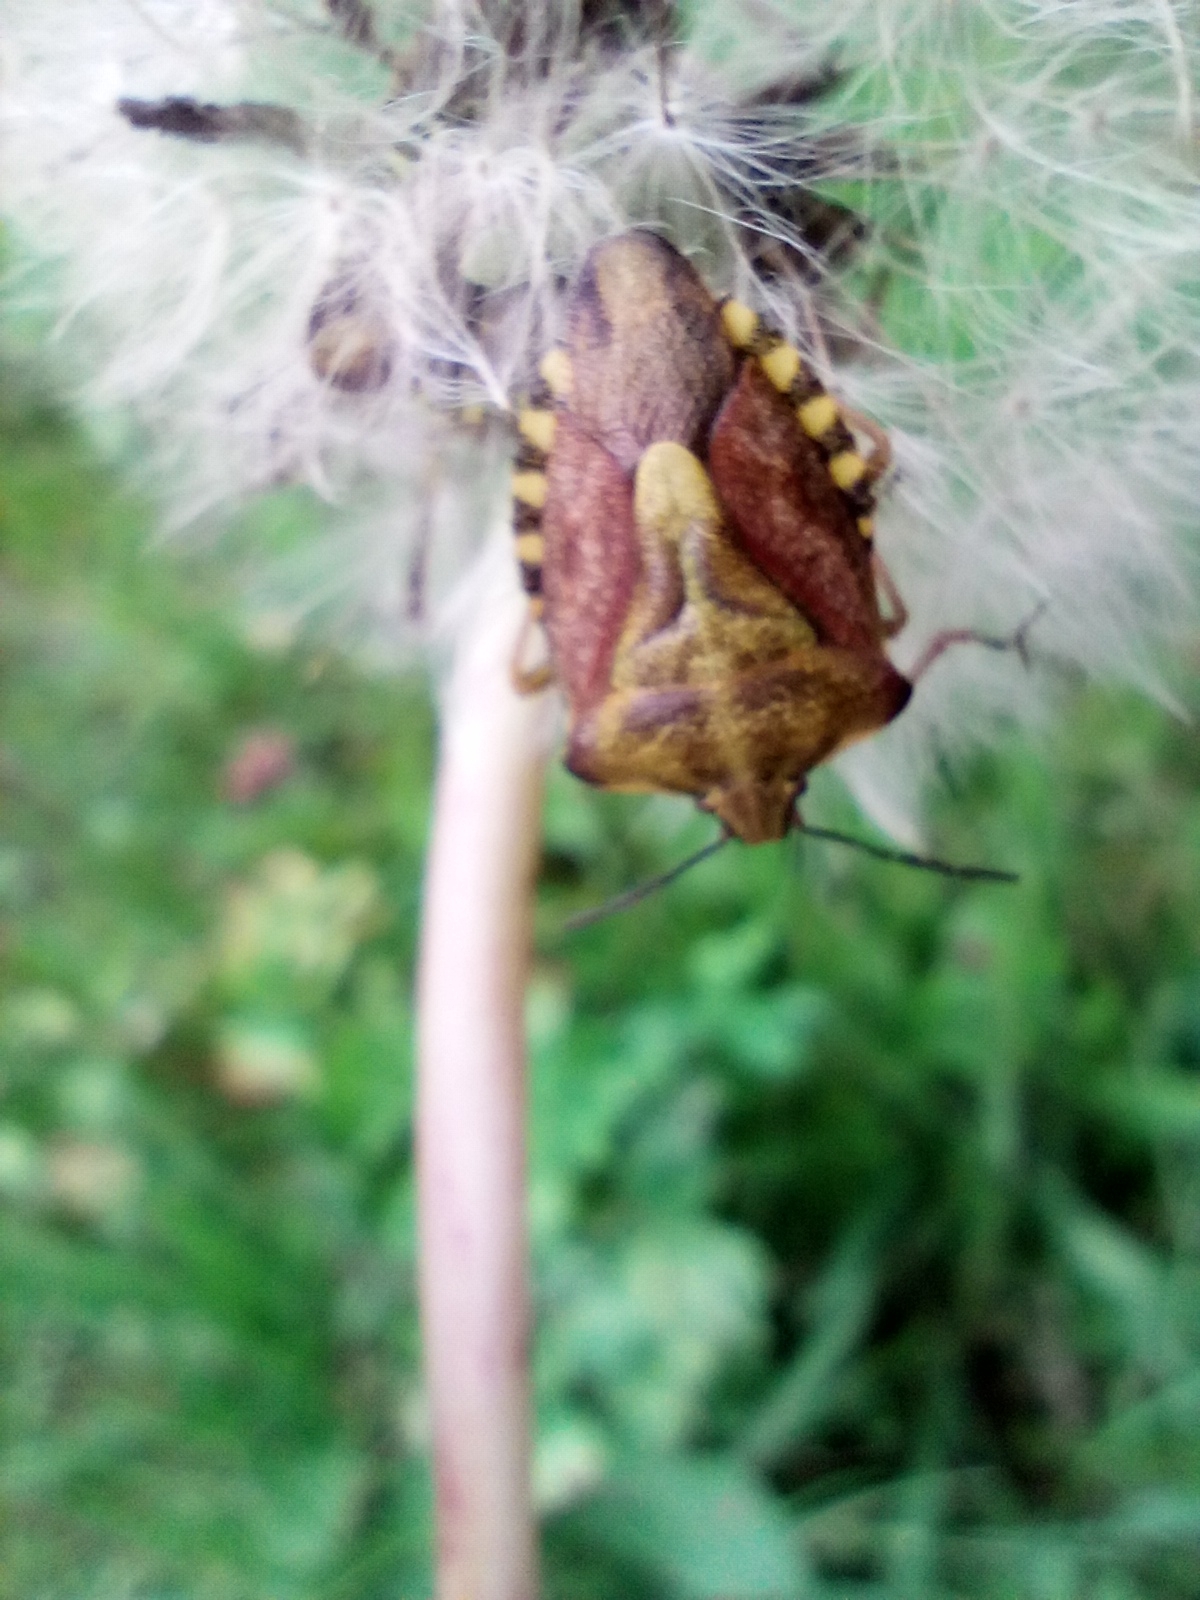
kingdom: Animalia
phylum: Arthropoda
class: Insecta
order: Hemiptera
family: Pentatomidae
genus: Carpocoris
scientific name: Carpocoris purpureipennis
